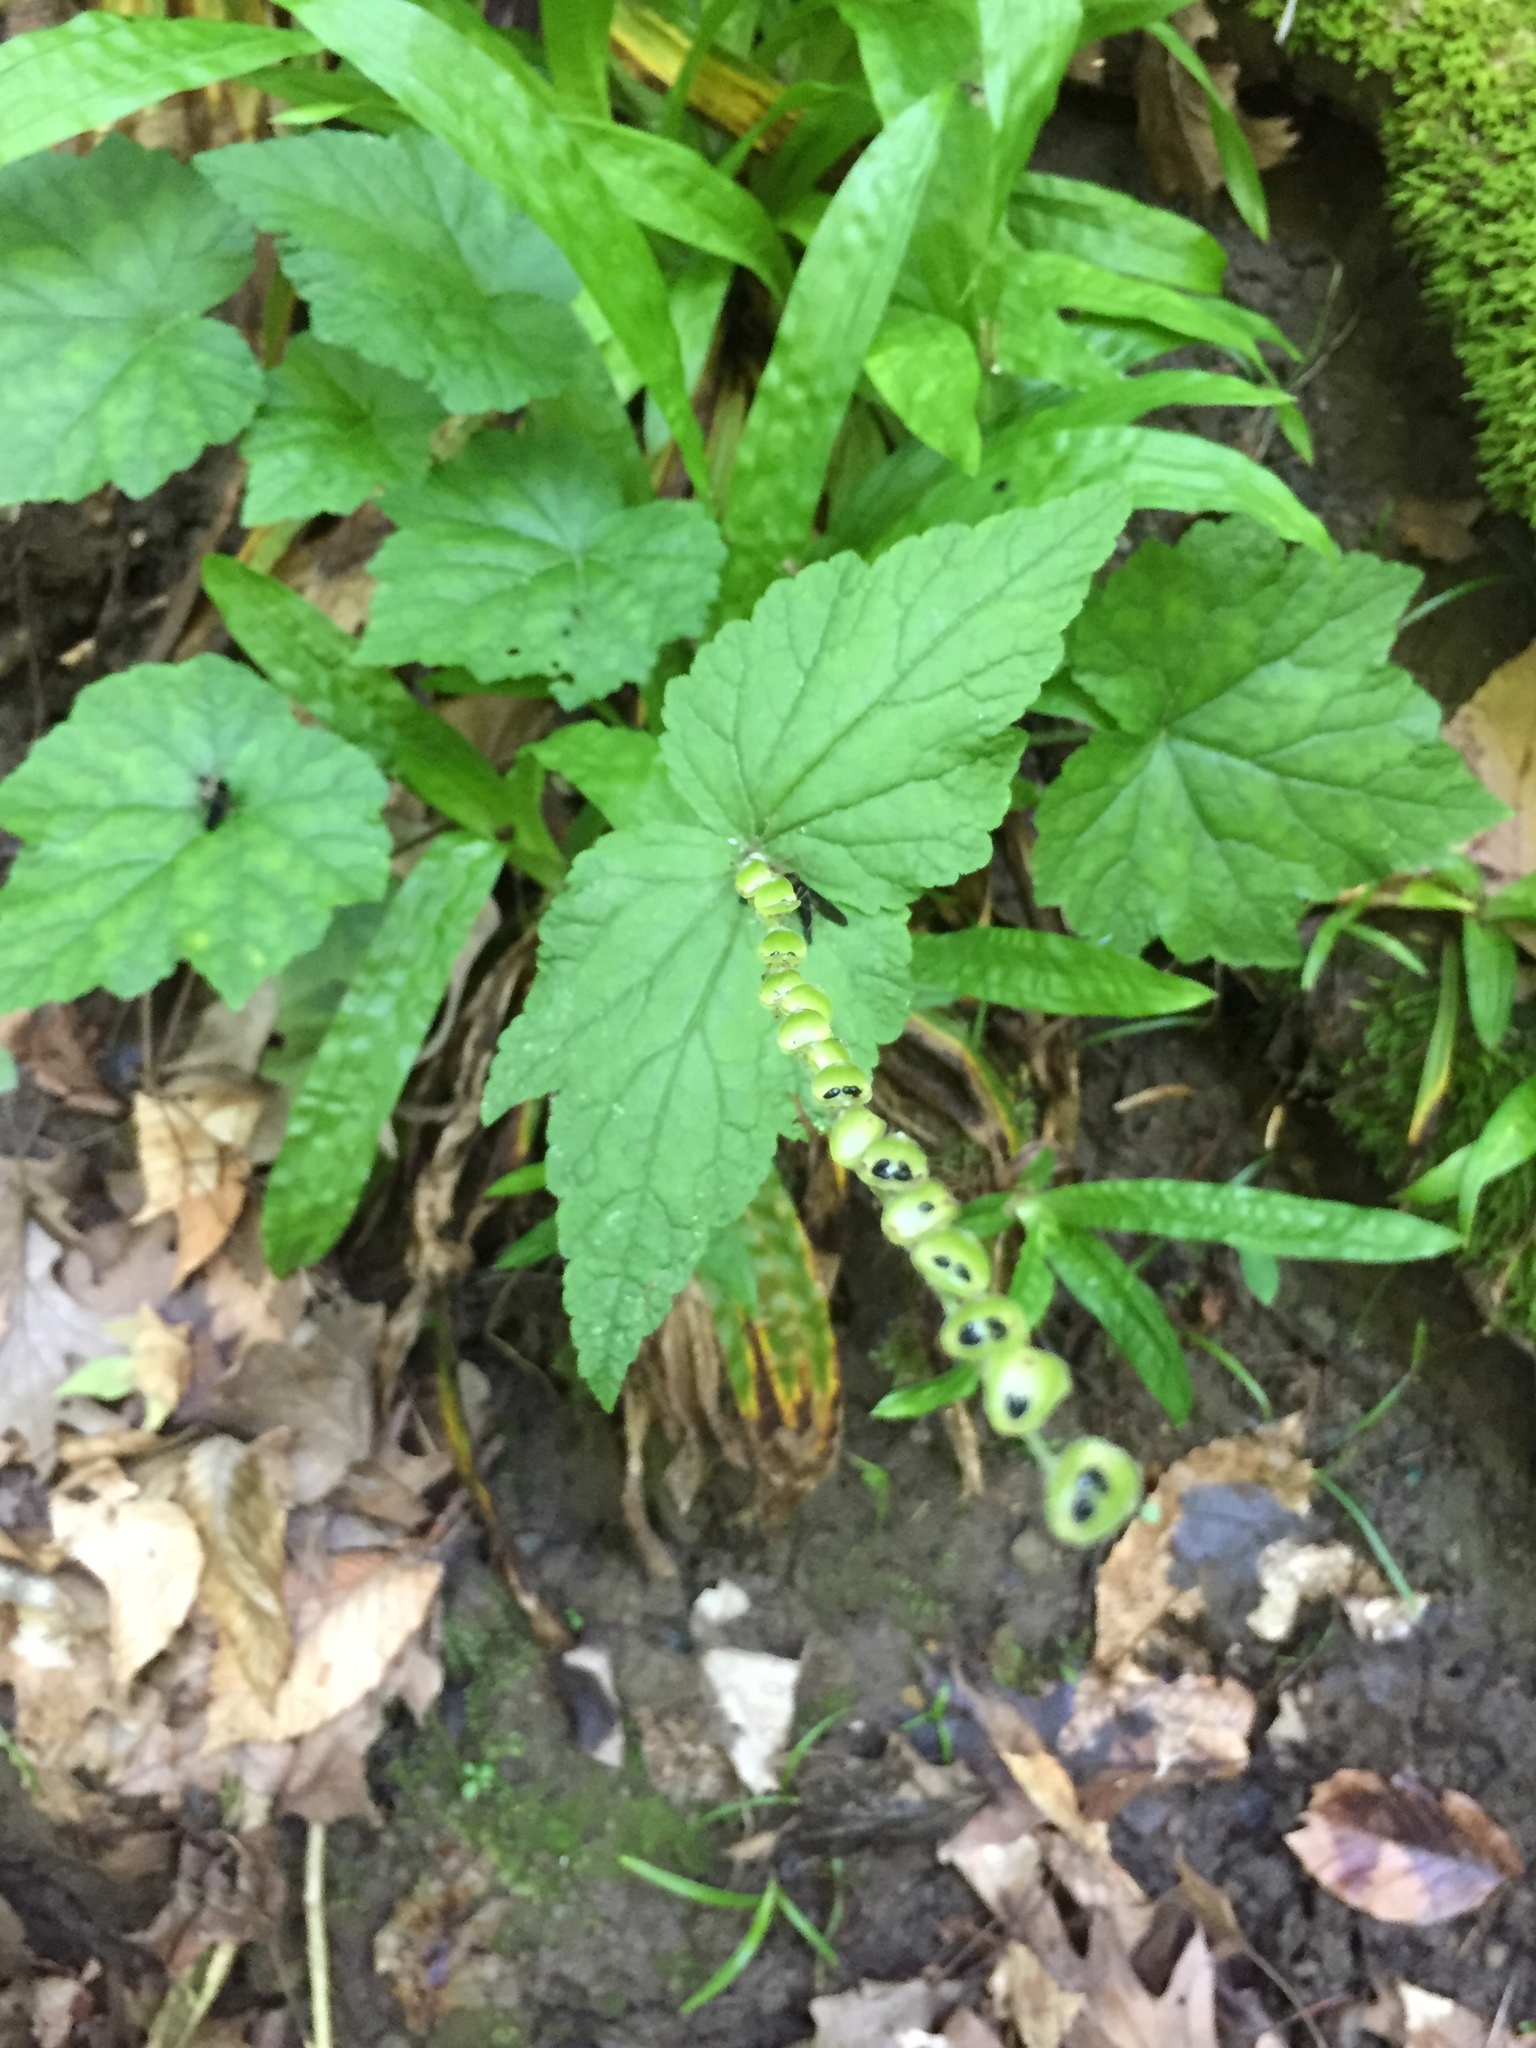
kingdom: Plantae
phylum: Tracheophyta
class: Magnoliopsida
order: Saxifragales
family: Saxifragaceae
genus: Mitella
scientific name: Mitella diphylla
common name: Coolwort
